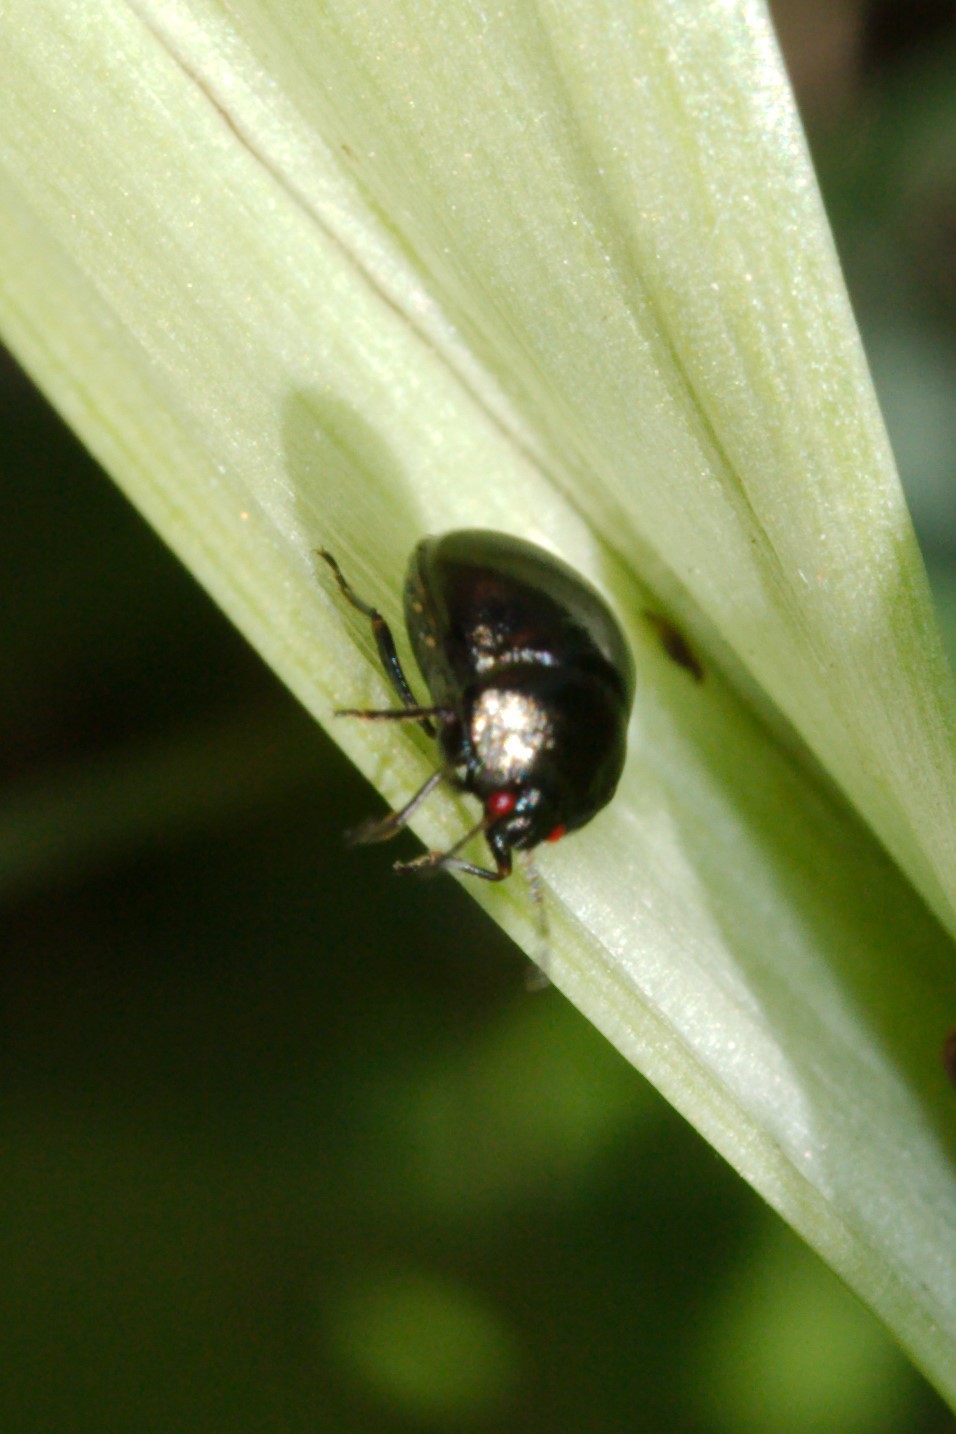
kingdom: Animalia
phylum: Arthropoda
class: Insecta
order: Hemiptera
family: Plataspidae
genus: Coptosoma
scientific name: Coptosoma scutellatum
